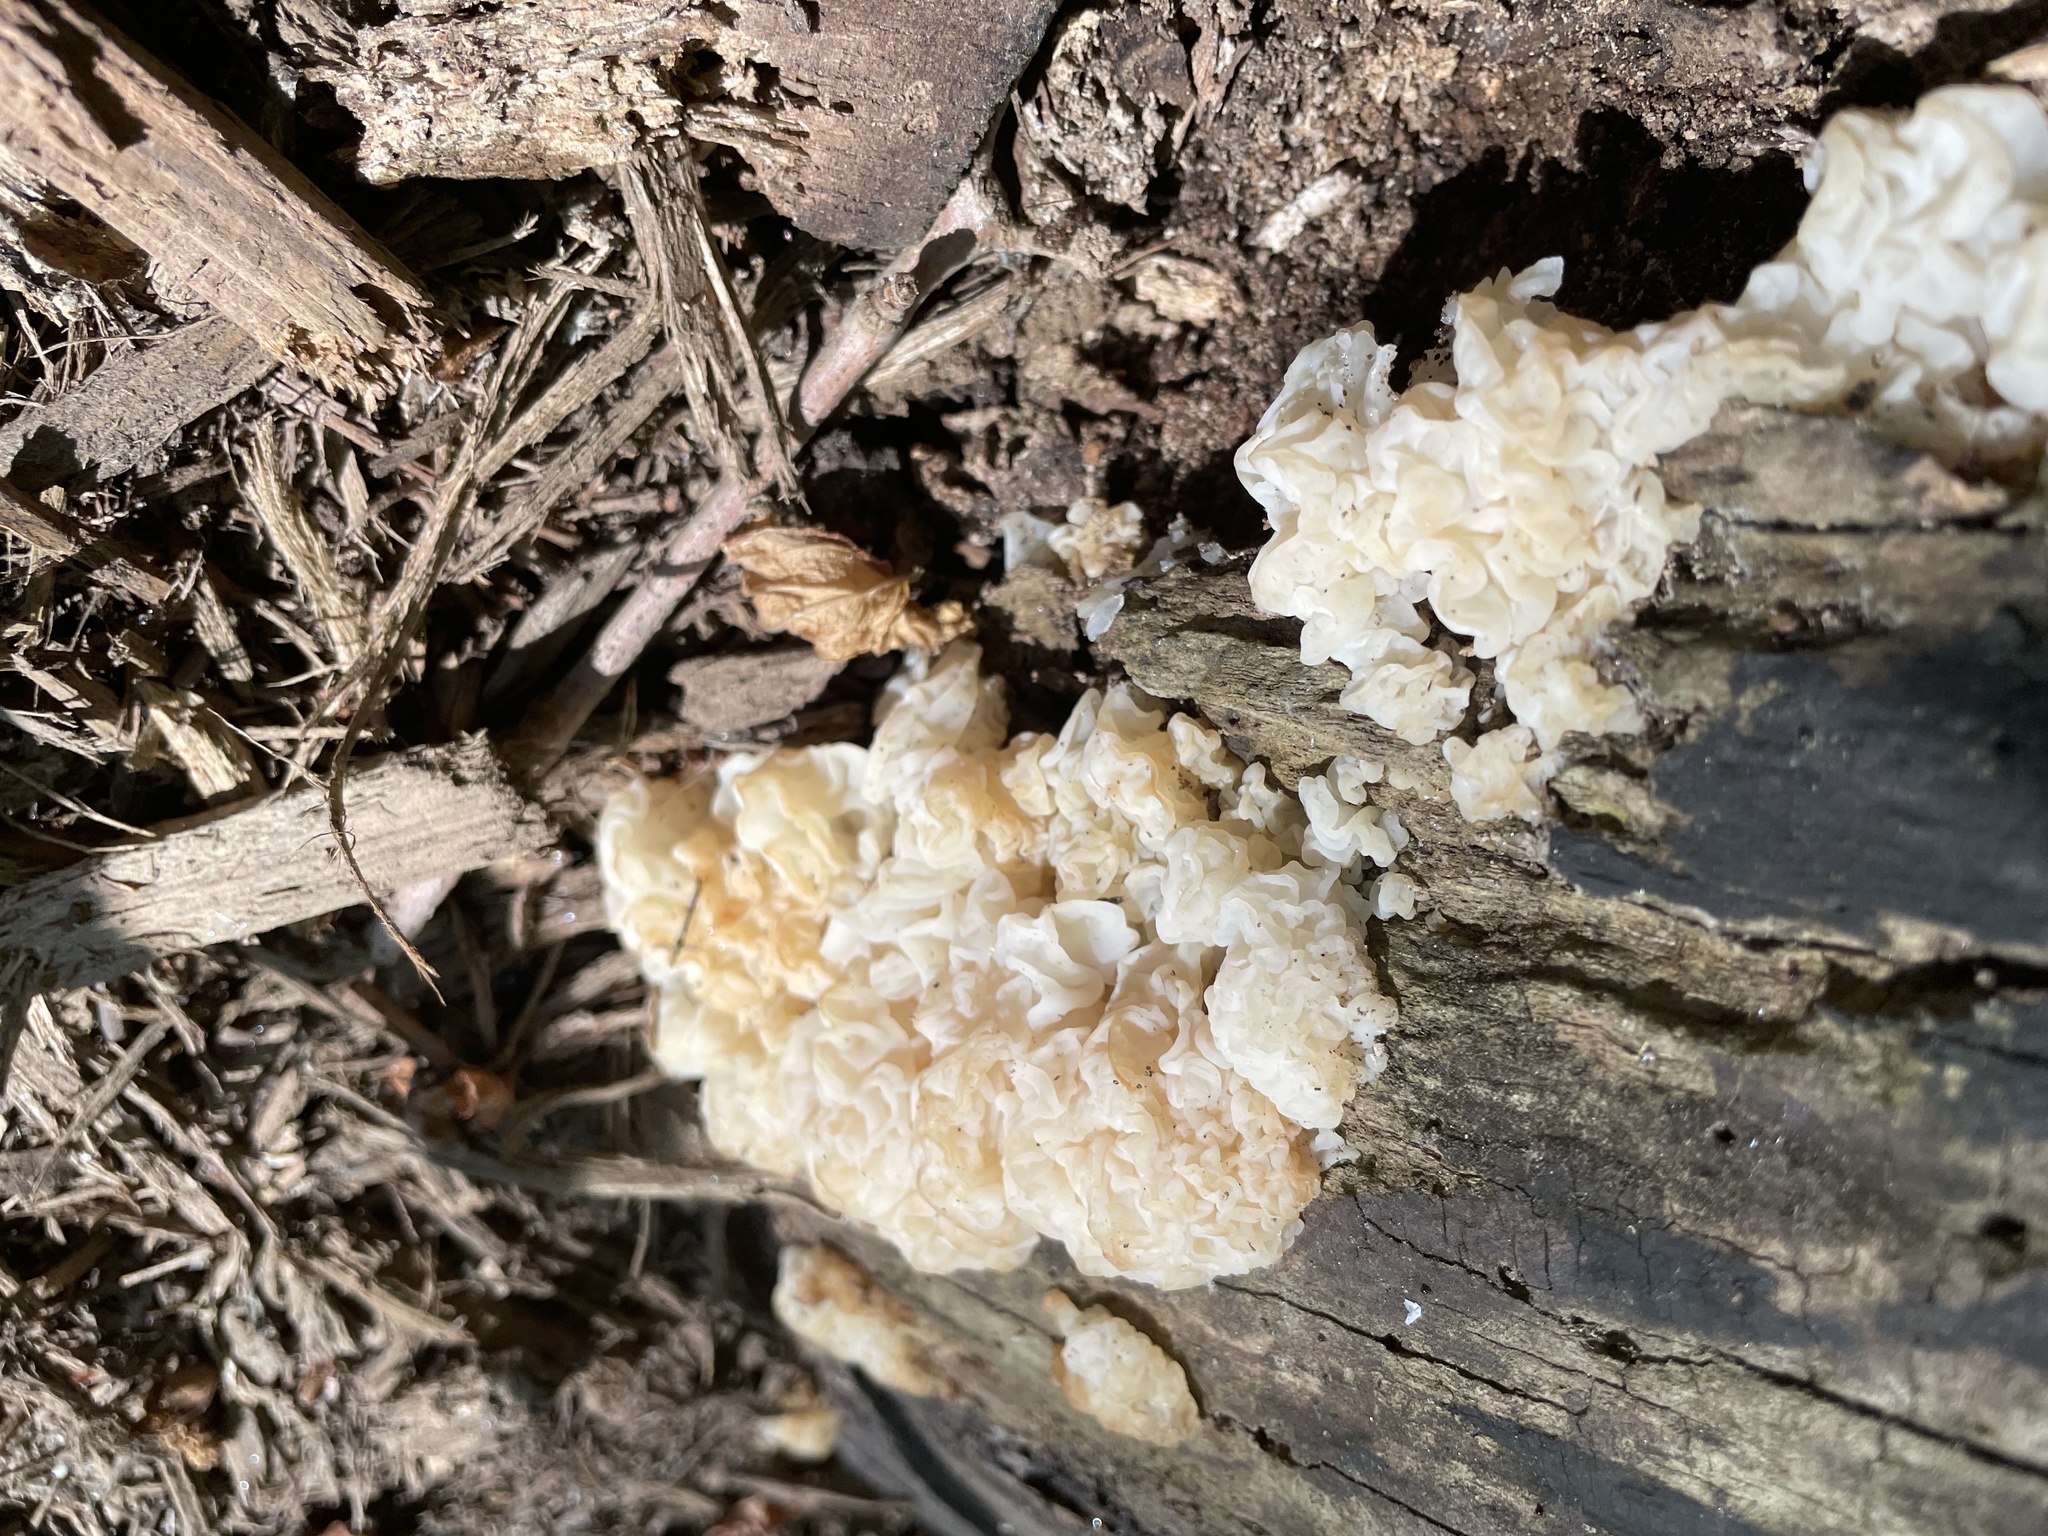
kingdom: Fungi
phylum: Basidiomycota
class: Agaricomycetes
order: Auriculariales
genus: Ductifera
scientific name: Ductifera pululahuana
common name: White jelly fungus
